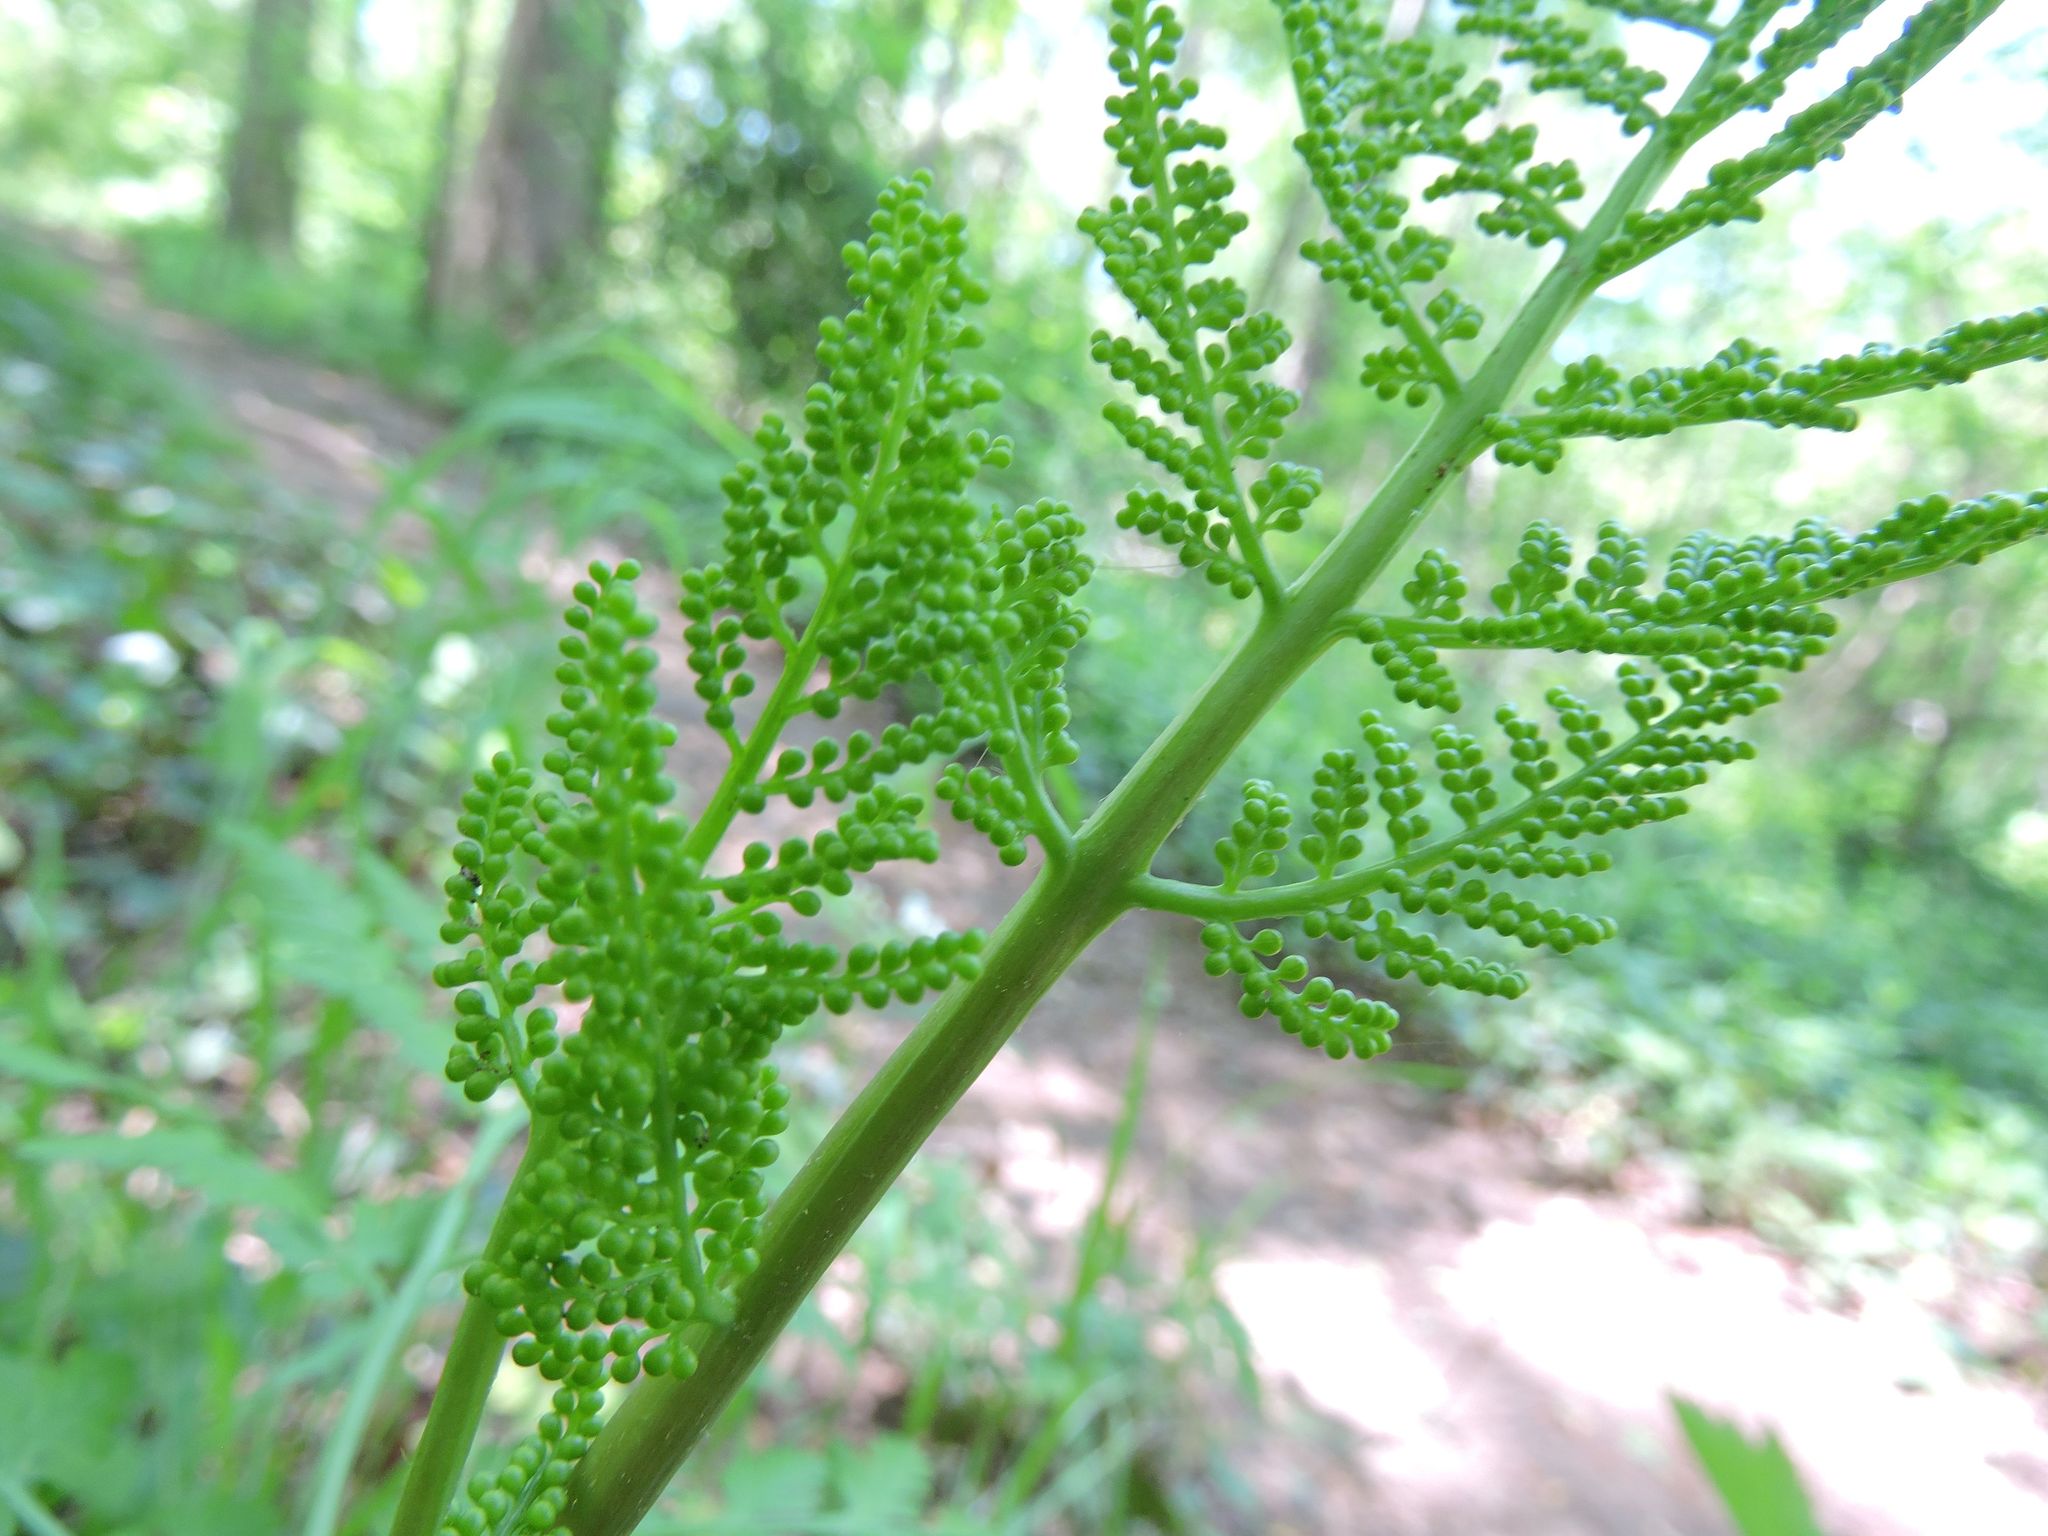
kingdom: Plantae
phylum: Tracheophyta
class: Polypodiopsida
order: Ophioglossales
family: Ophioglossaceae
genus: Botrypus
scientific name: Botrypus virginianus
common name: Common grapefern
